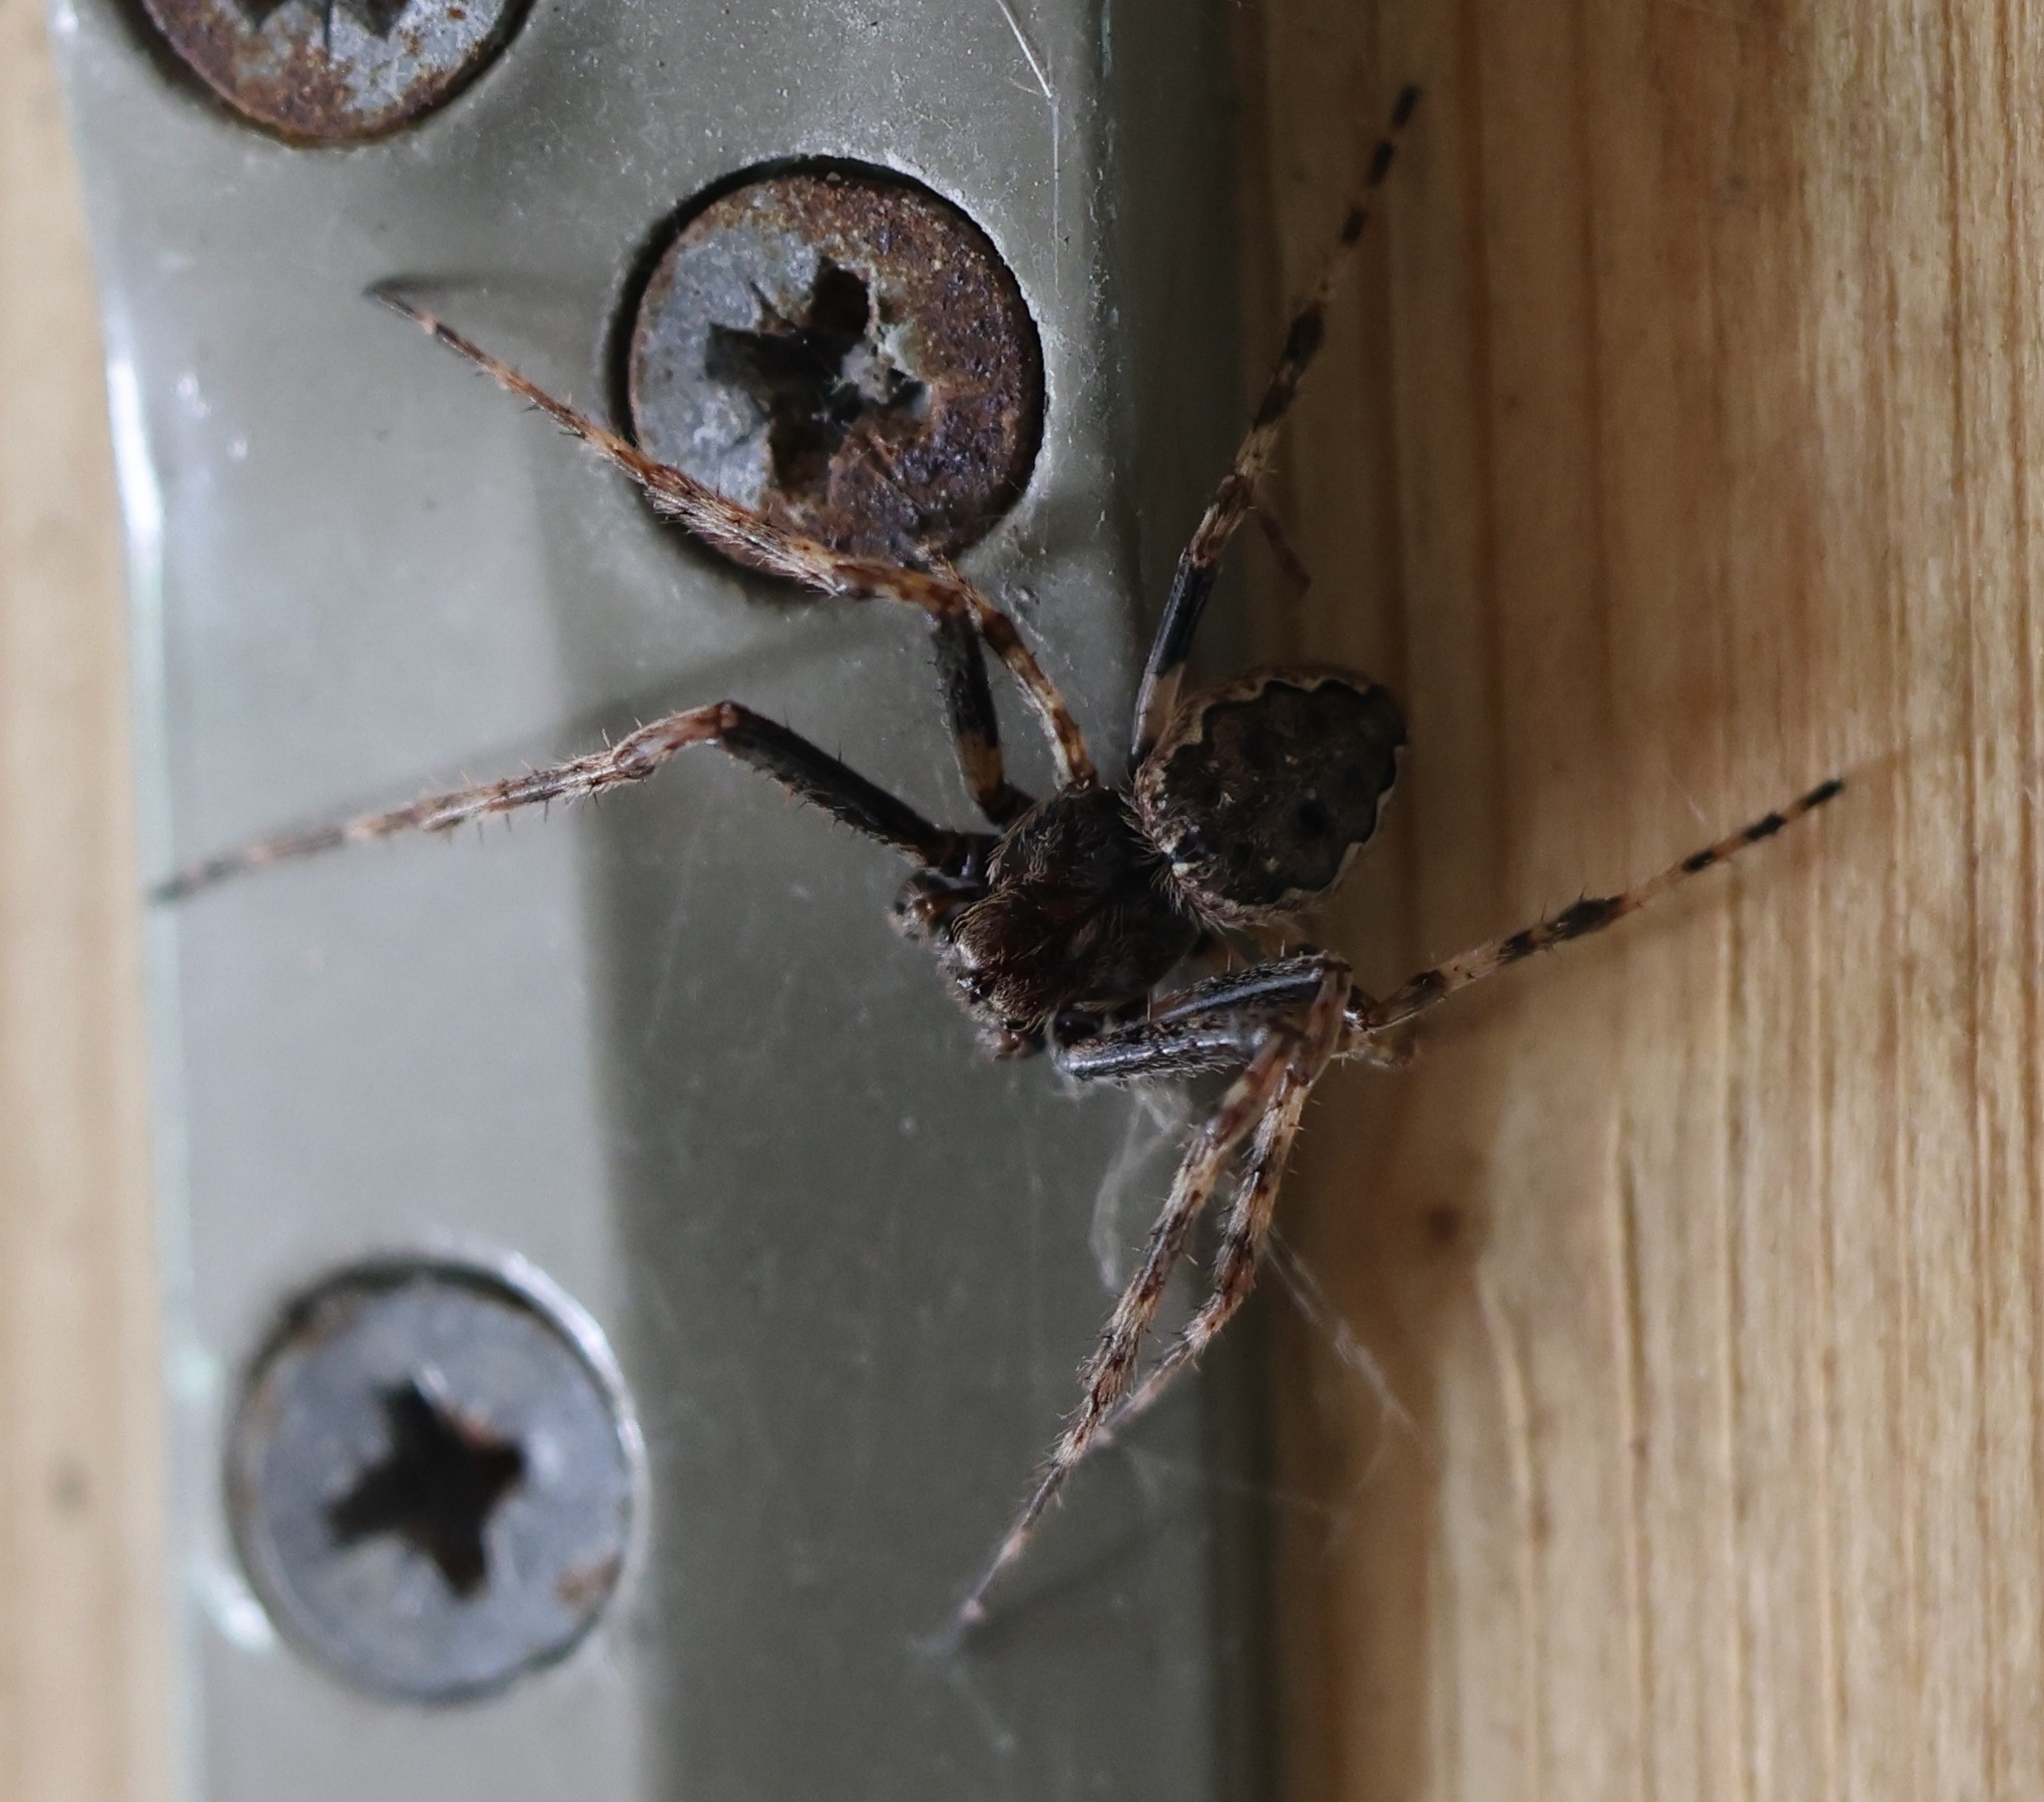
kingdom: Animalia
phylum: Arthropoda
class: Arachnida
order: Araneae
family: Araneidae
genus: Nuctenea
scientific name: Nuctenea umbratica
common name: Toad spider
